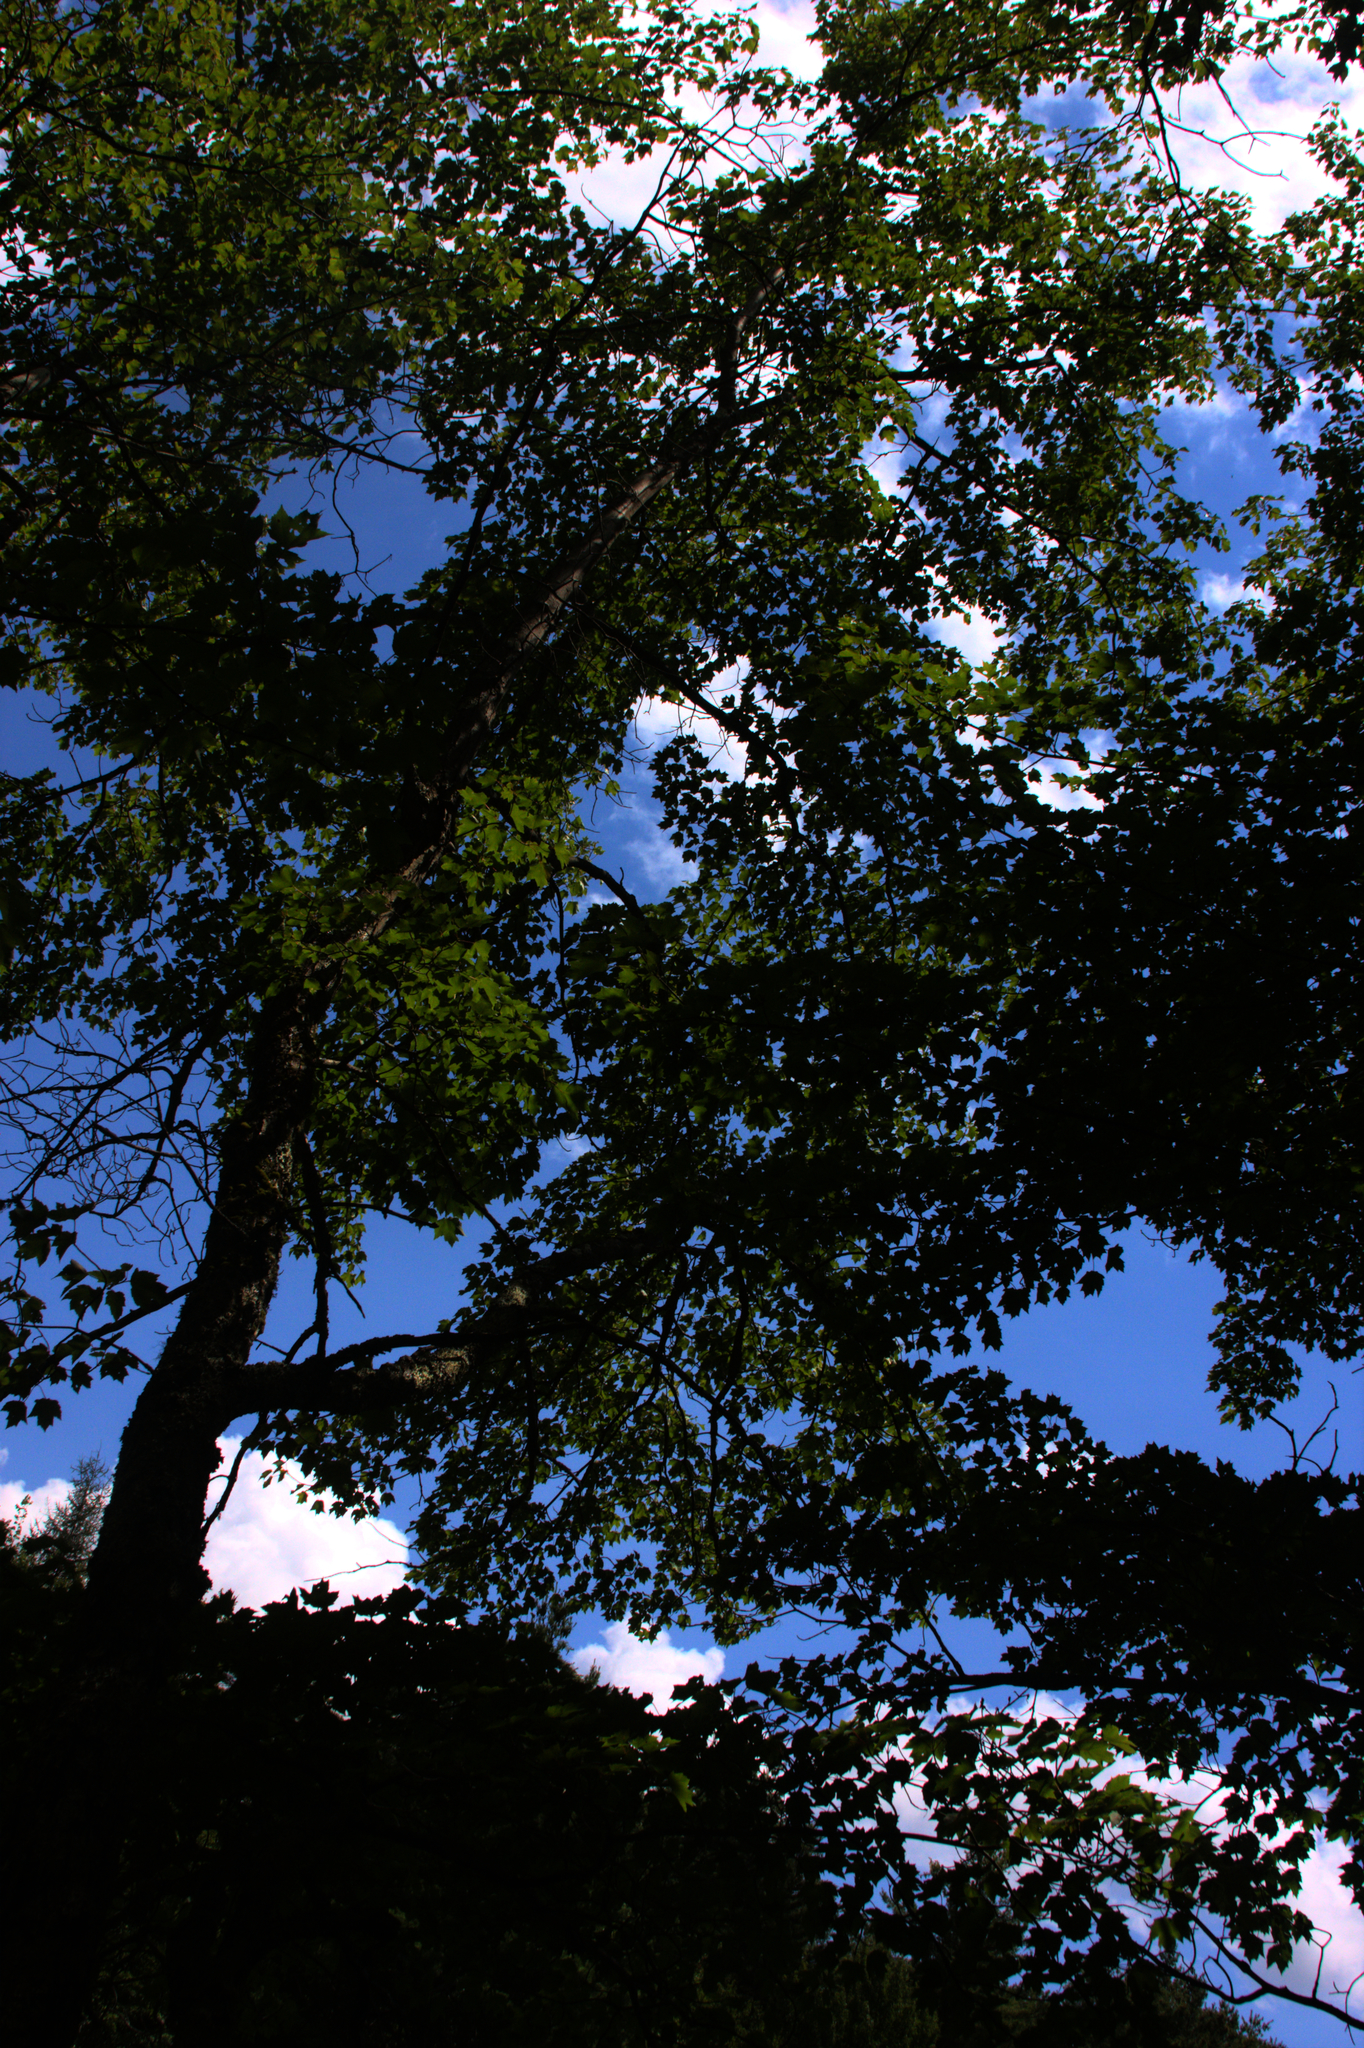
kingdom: Plantae
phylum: Tracheophyta
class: Magnoliopsida
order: Sapindales
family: Sapindaceae
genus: Acer
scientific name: Acer rubrum
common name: Red maple
